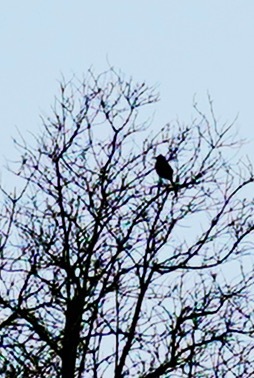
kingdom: Animalia
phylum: Chordata
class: Aves
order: Passeriformes
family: Mimidae
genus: Toxostoma
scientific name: Toxostoma redivivum
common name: California thrasher
